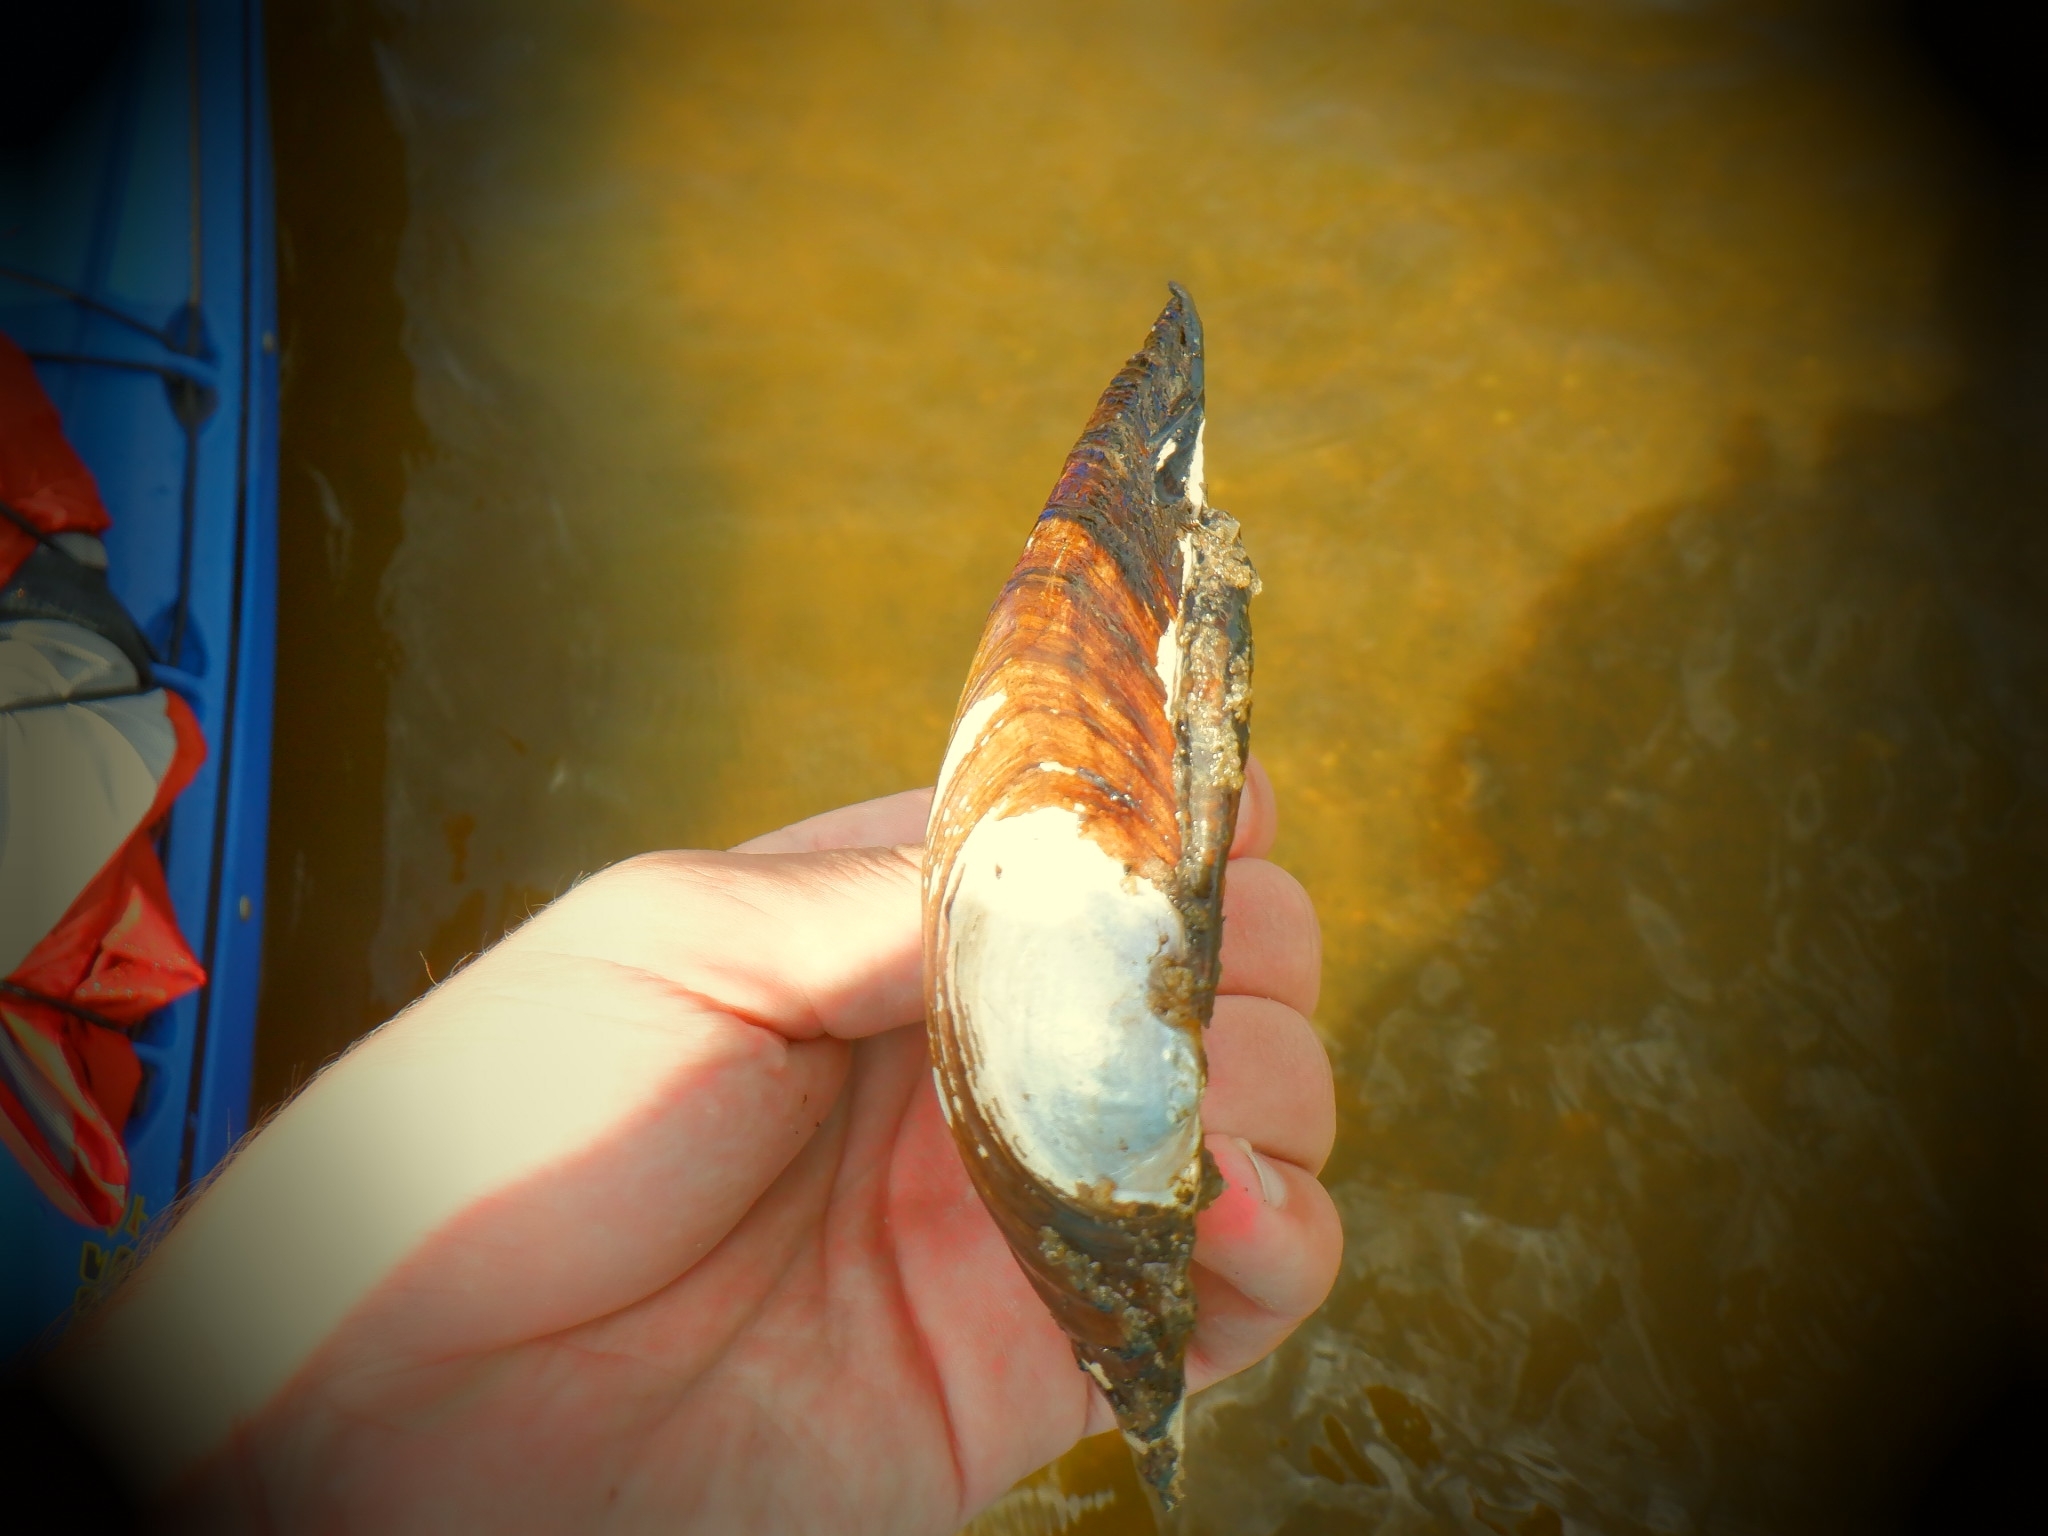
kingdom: Animalia
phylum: Mollusca
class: Bivalvia
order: Unionida
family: Unionidae
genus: Pyganodon
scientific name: Pyganodon grandis
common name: Giant floater
